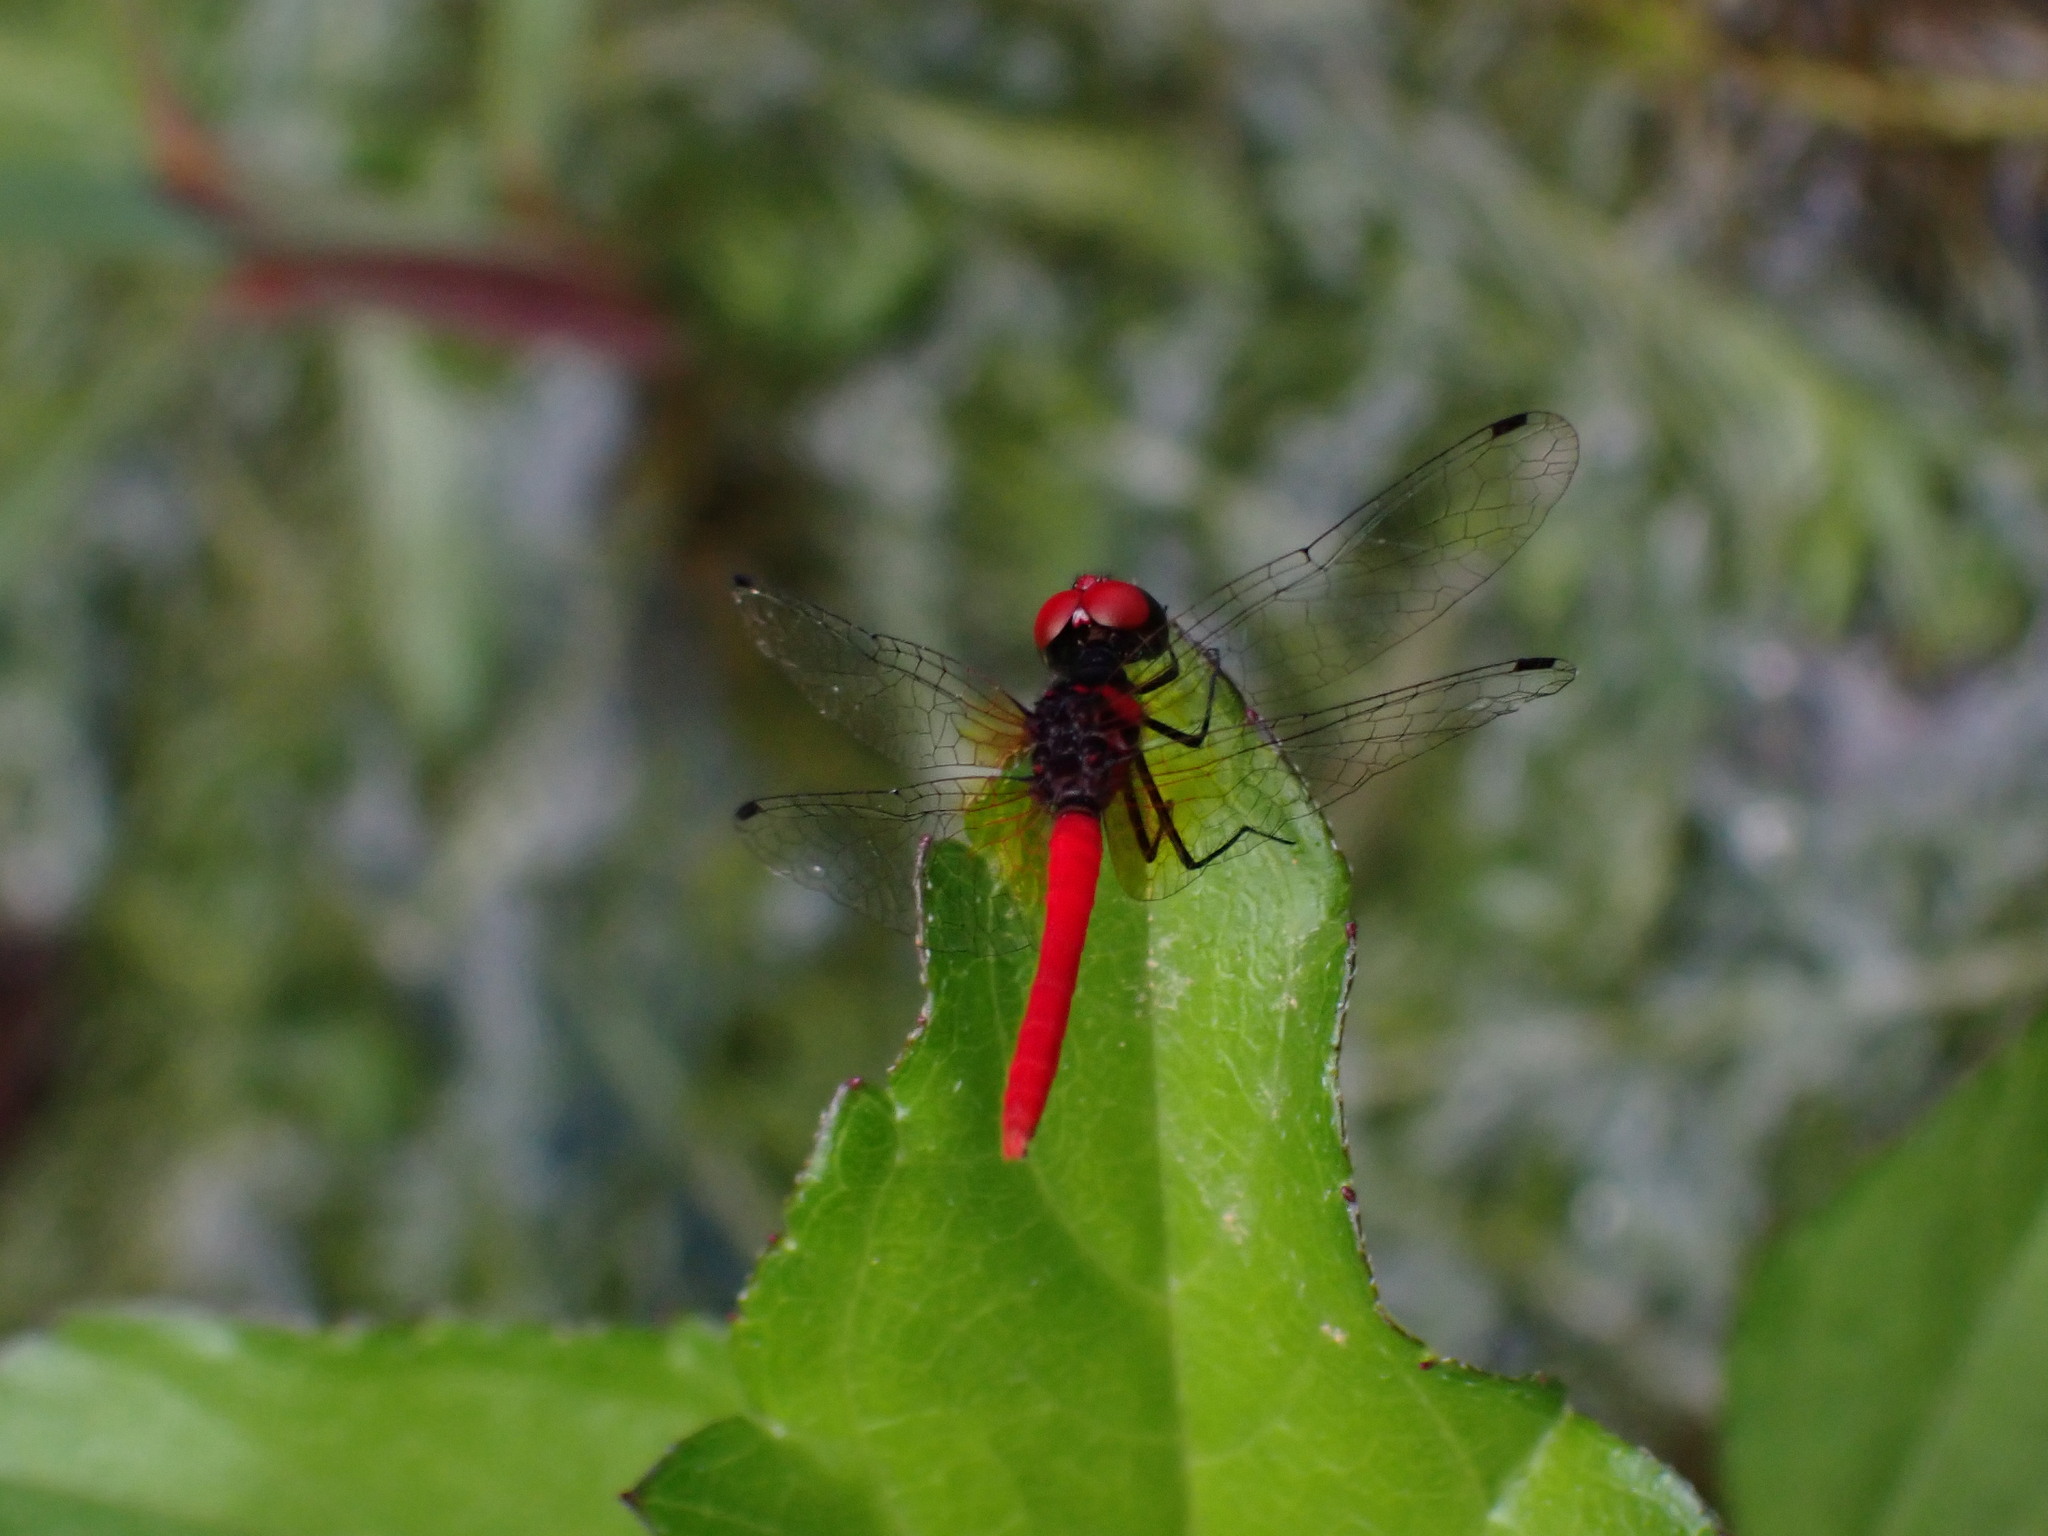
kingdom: Animalia
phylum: Arthropoda
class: Insecta
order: Odonata
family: Libellulidae
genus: Nannophya
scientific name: Nannophya pygmaea
